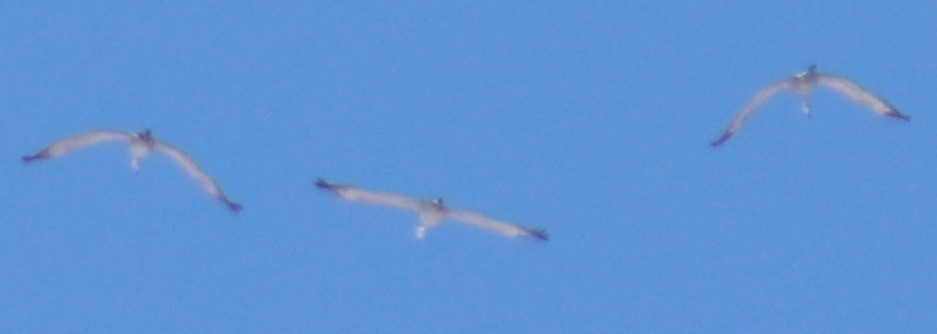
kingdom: Animalia
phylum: Chordata
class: Aves
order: Gruiformes
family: Gruidae
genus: Grus
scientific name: Grus canadensis
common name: Sandhill crane
